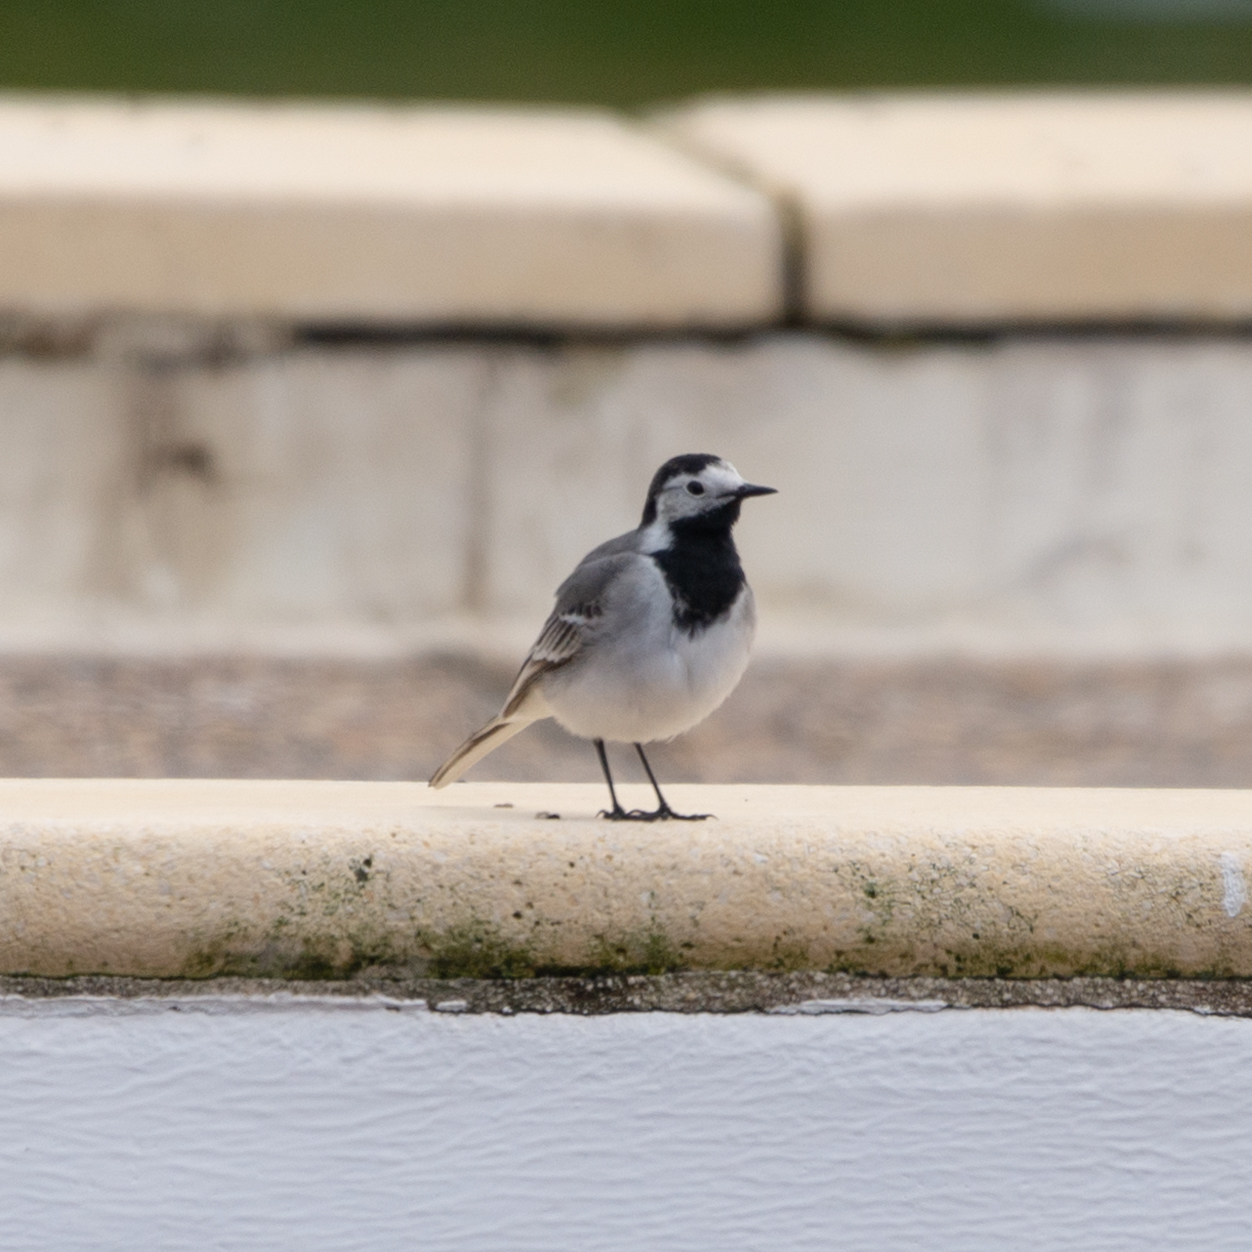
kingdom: Animalia
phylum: Chordata
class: Aves
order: Passeriformes
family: Motacillidae
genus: Motacilla
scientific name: Motacilla alba
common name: White wagtail
